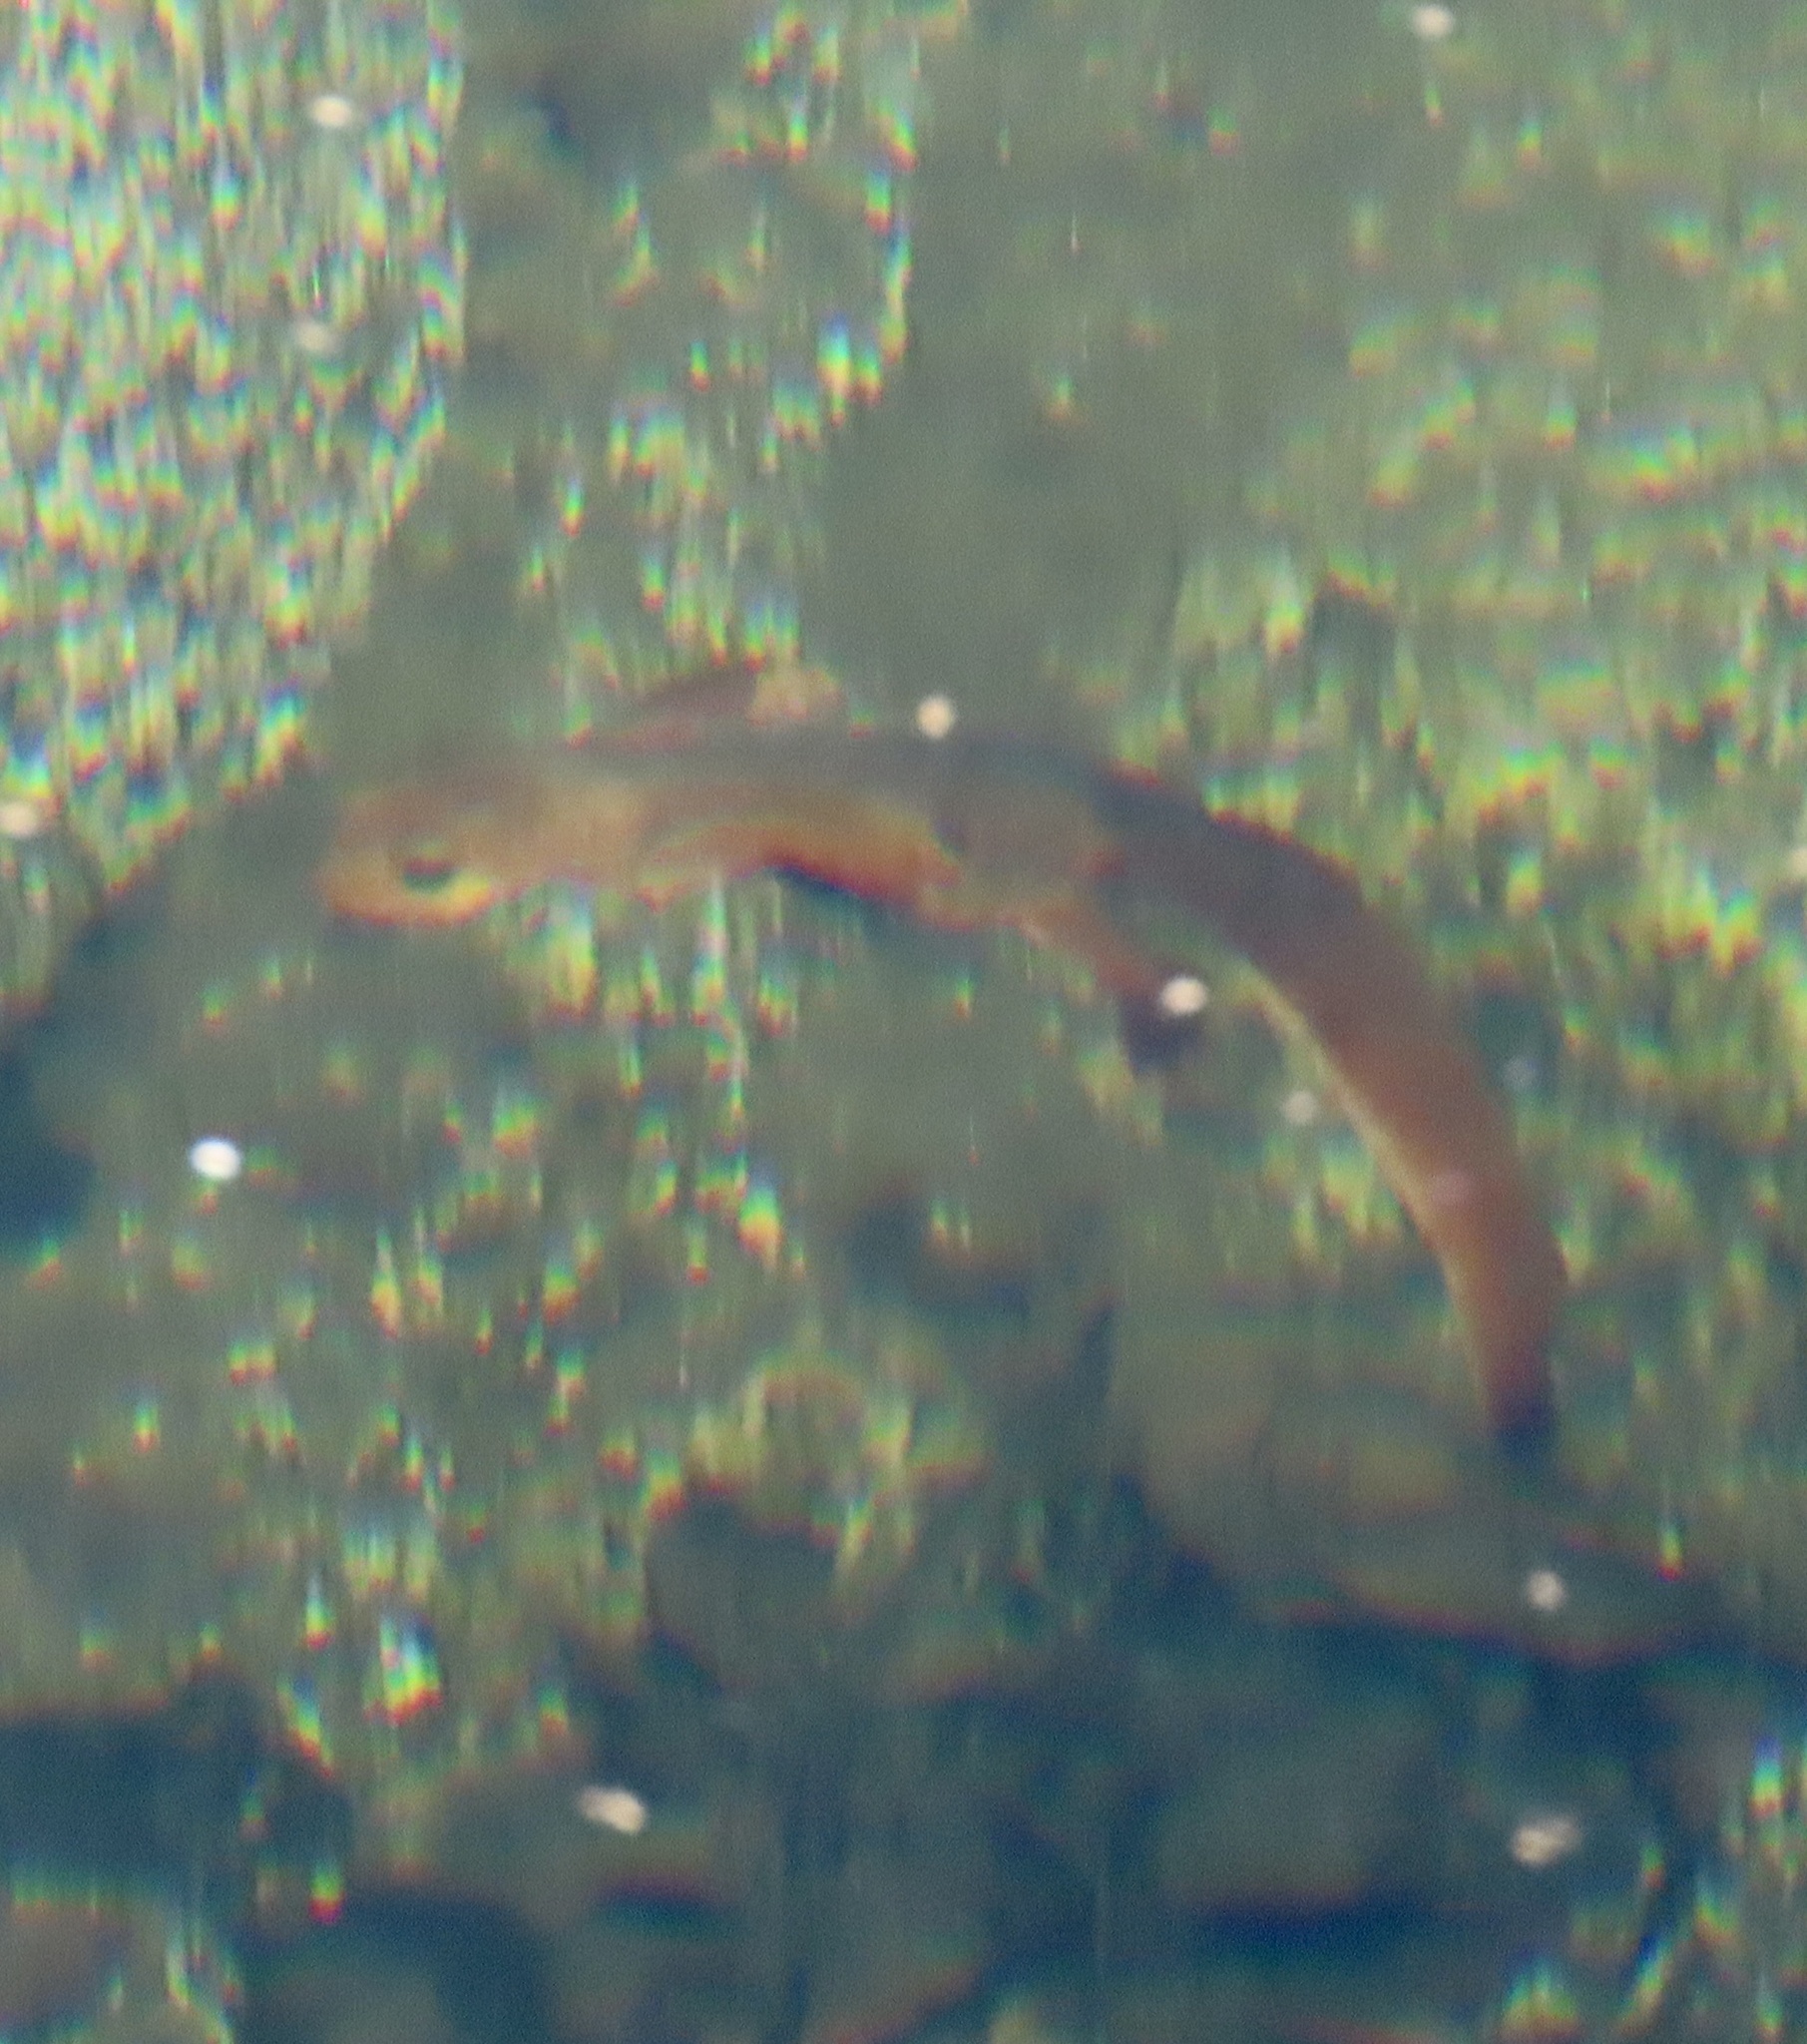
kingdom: Animalia
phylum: Chordata
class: Amphibia
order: Caudata
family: Salamandridae
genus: Taricha
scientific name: Taricha torosa
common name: California newt
